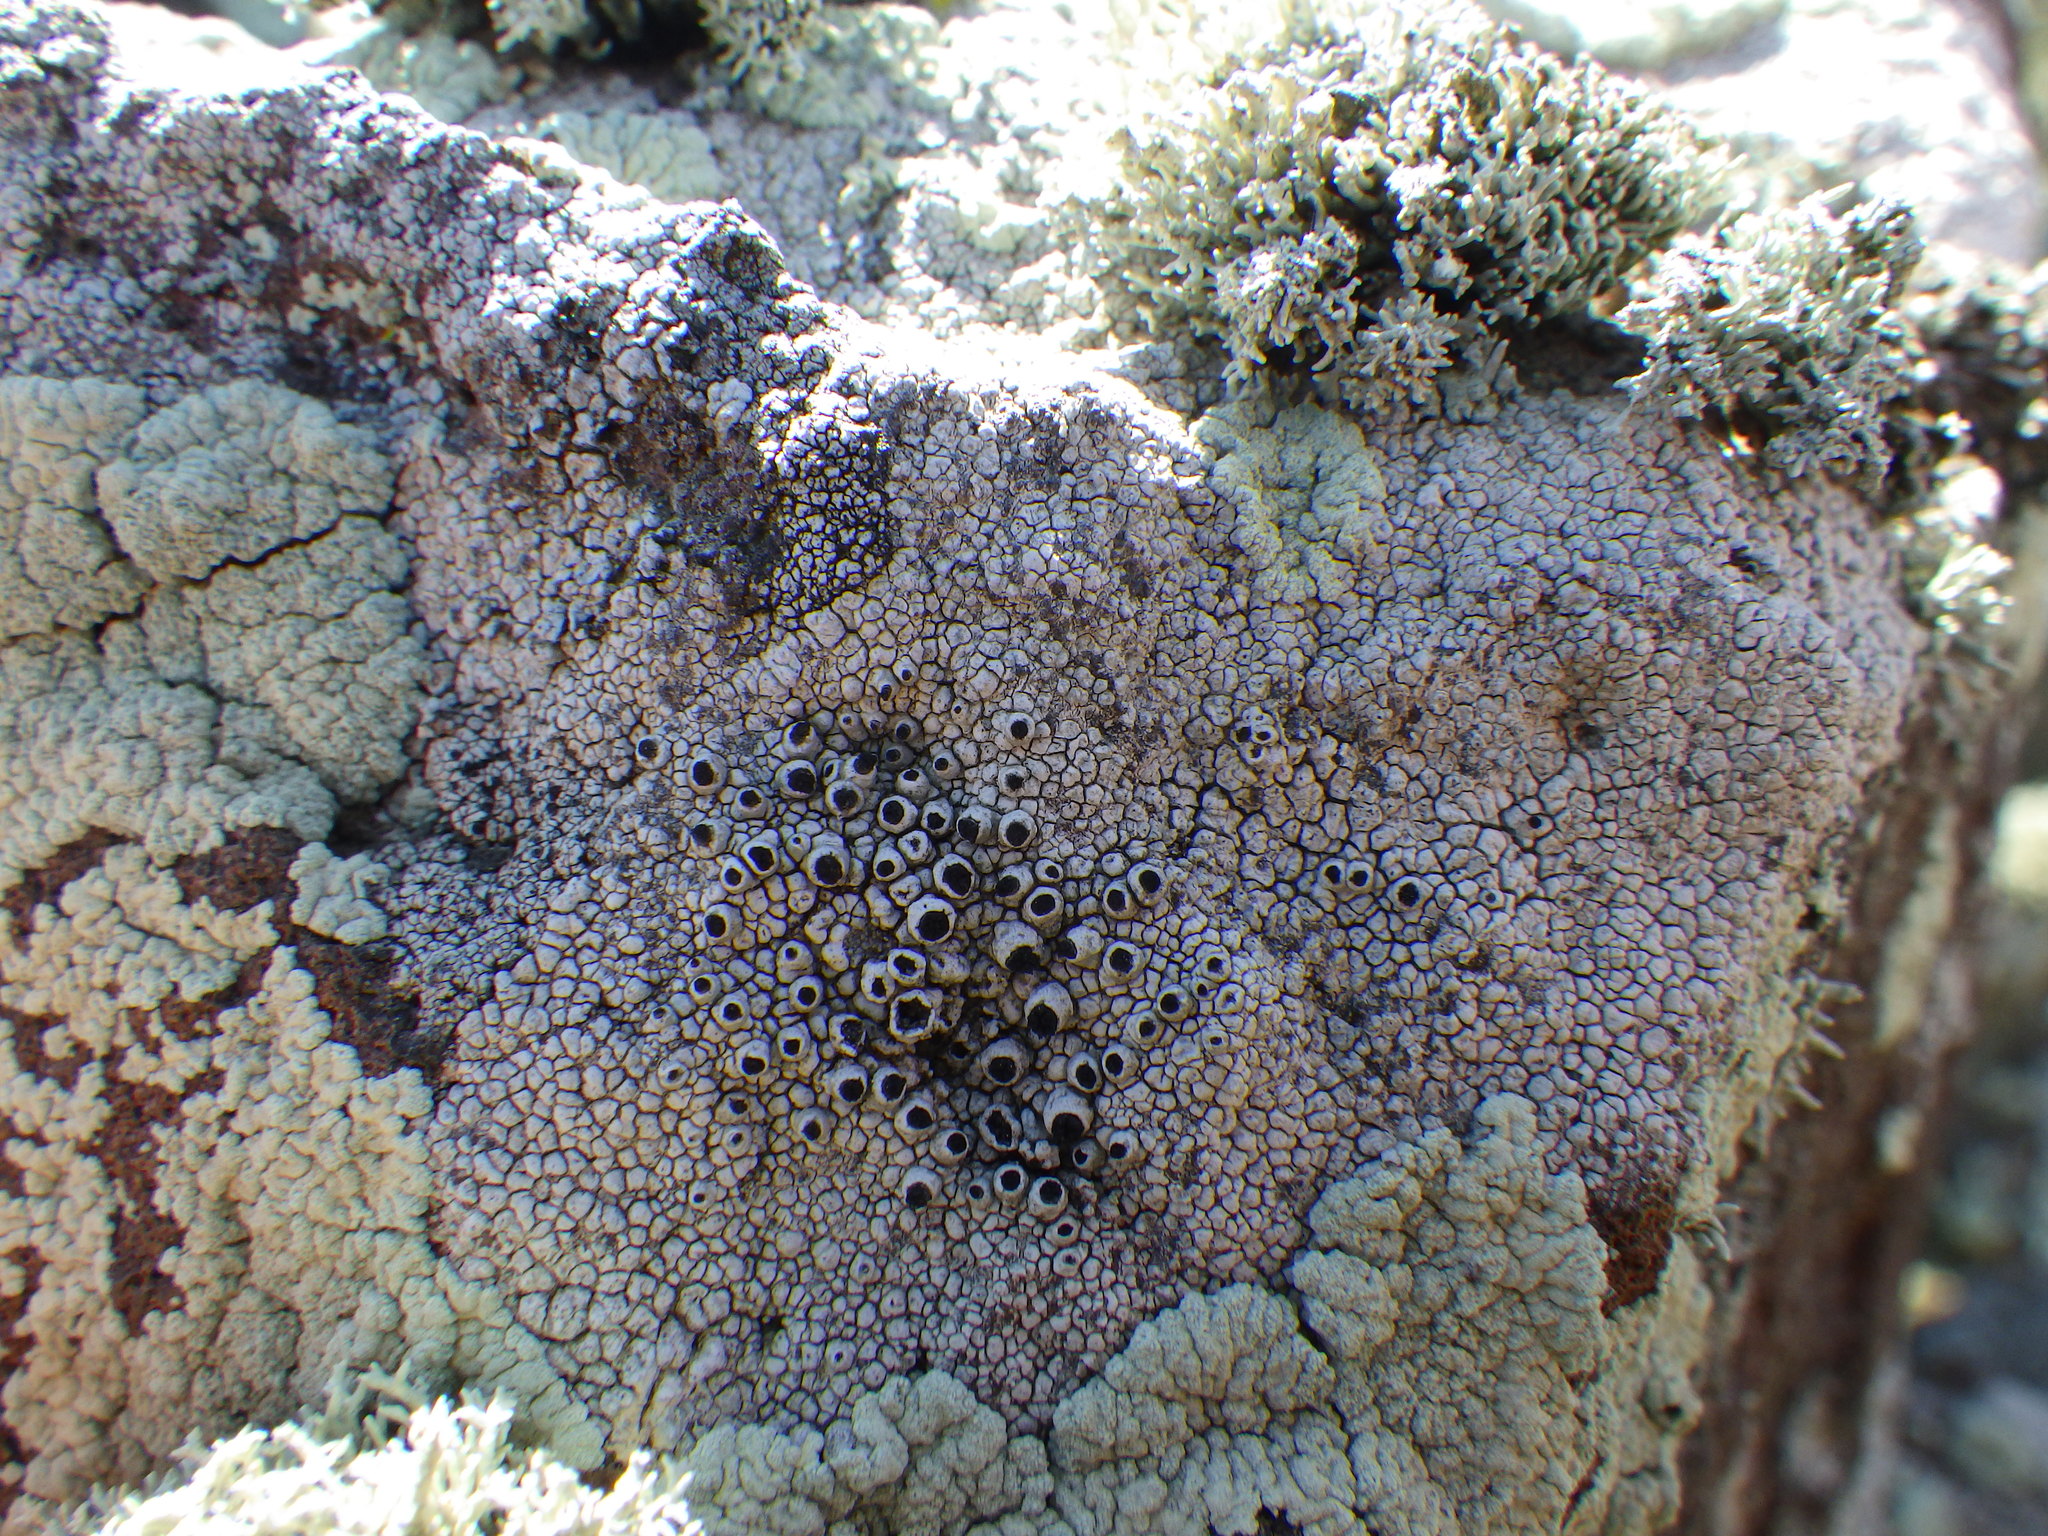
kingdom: Fungi
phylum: Ascomycota
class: Lecanoromycetes
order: Caliciales
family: Caliciaceae
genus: Thelomma
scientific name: Thelomma mammosum
